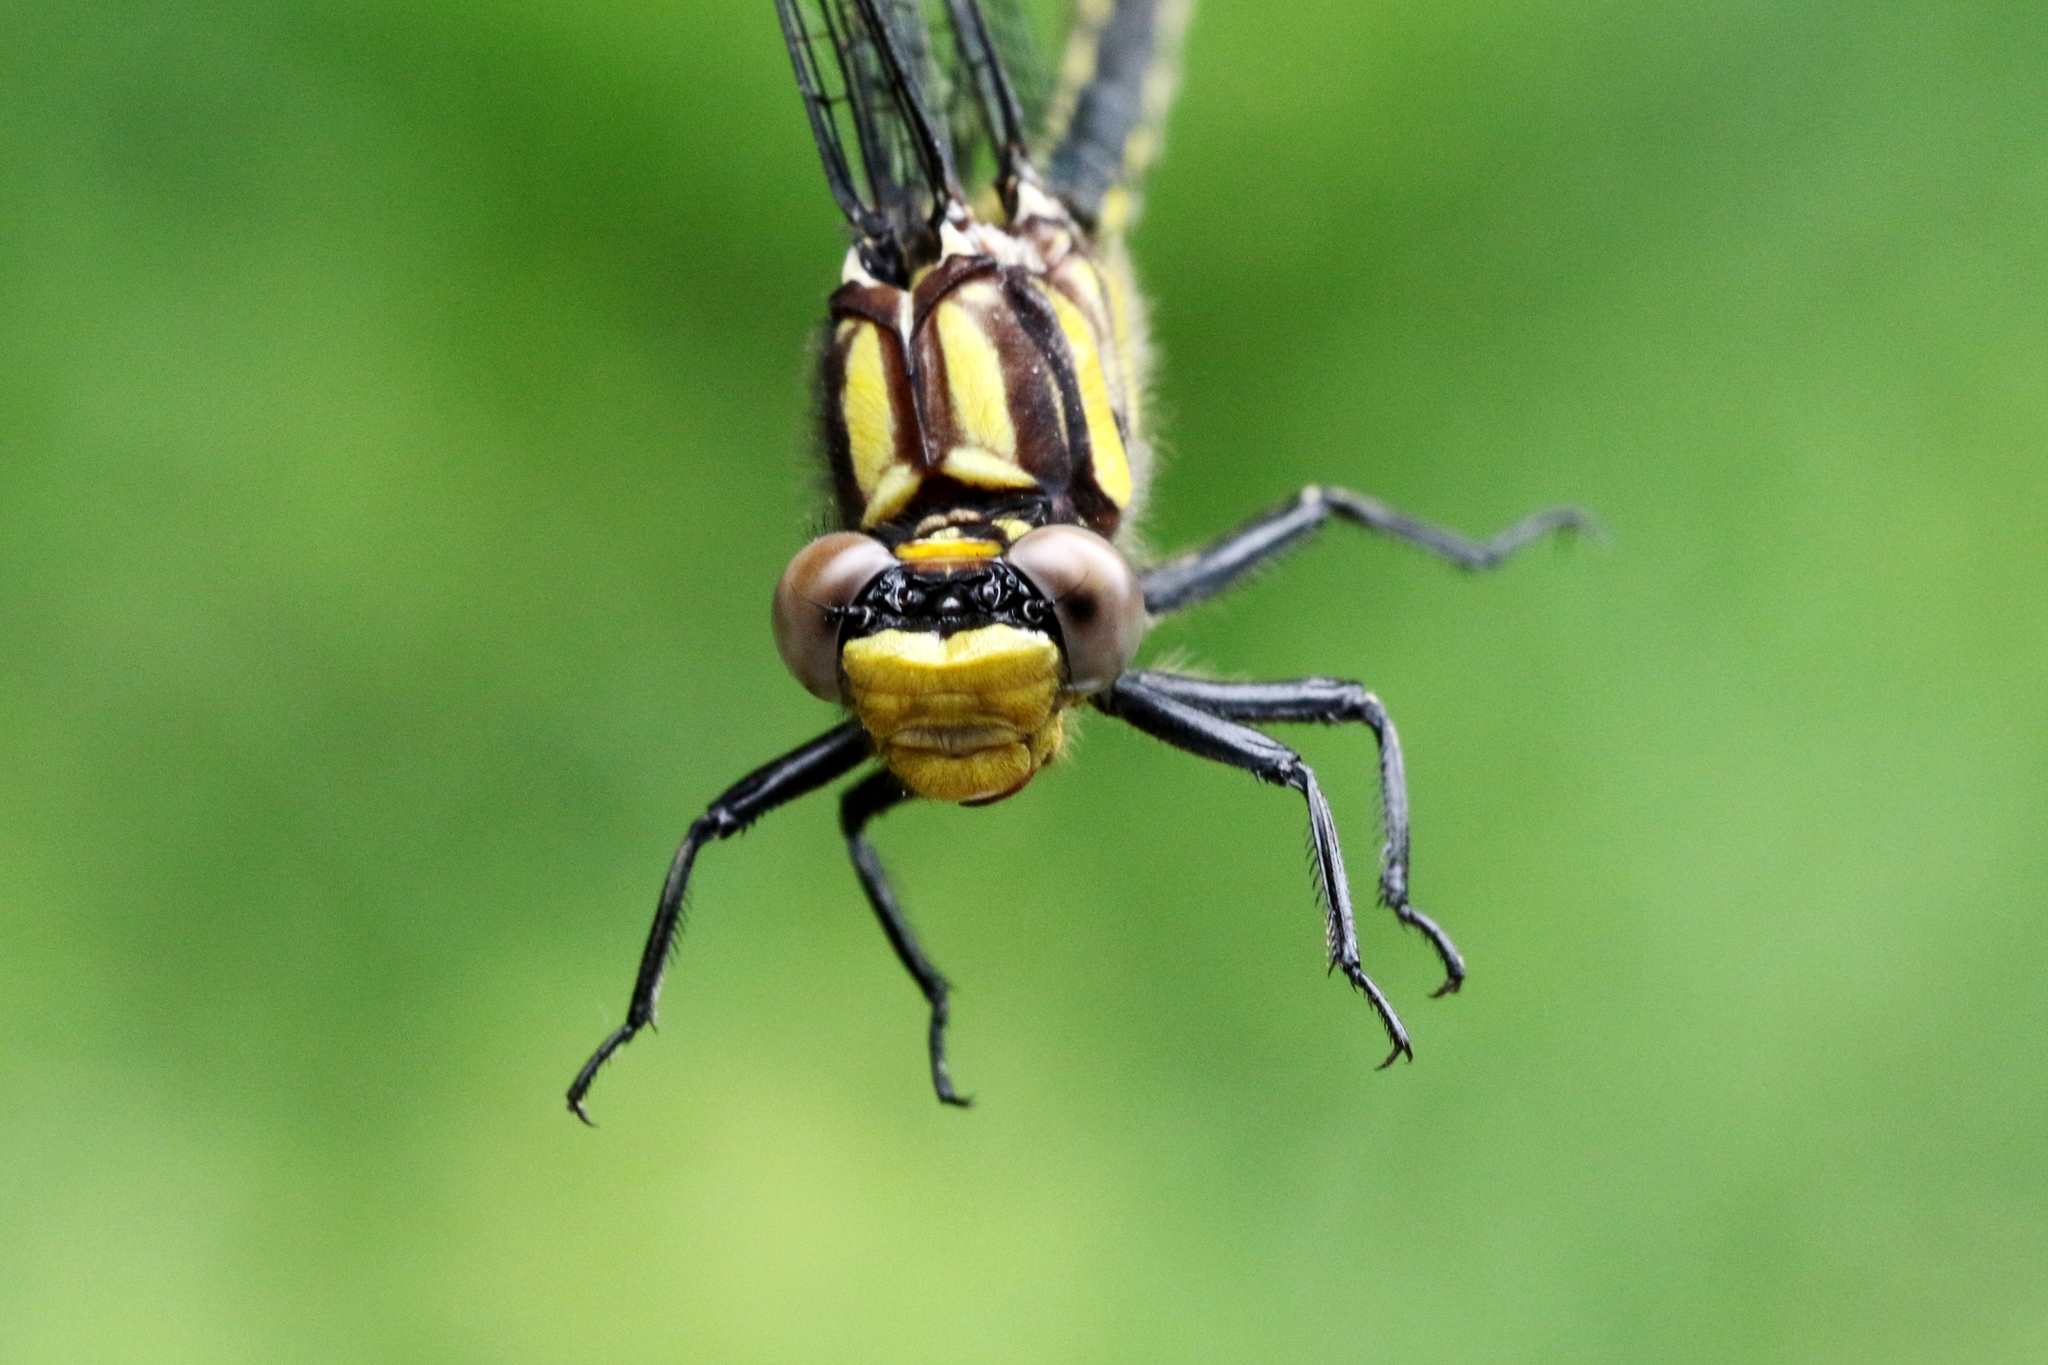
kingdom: Animalia
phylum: Arthropoda
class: Insecta
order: Odonata
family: Gomphidae
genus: Phanogomphus
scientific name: Phanogomphus descriptus
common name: Harpoon clubtail
